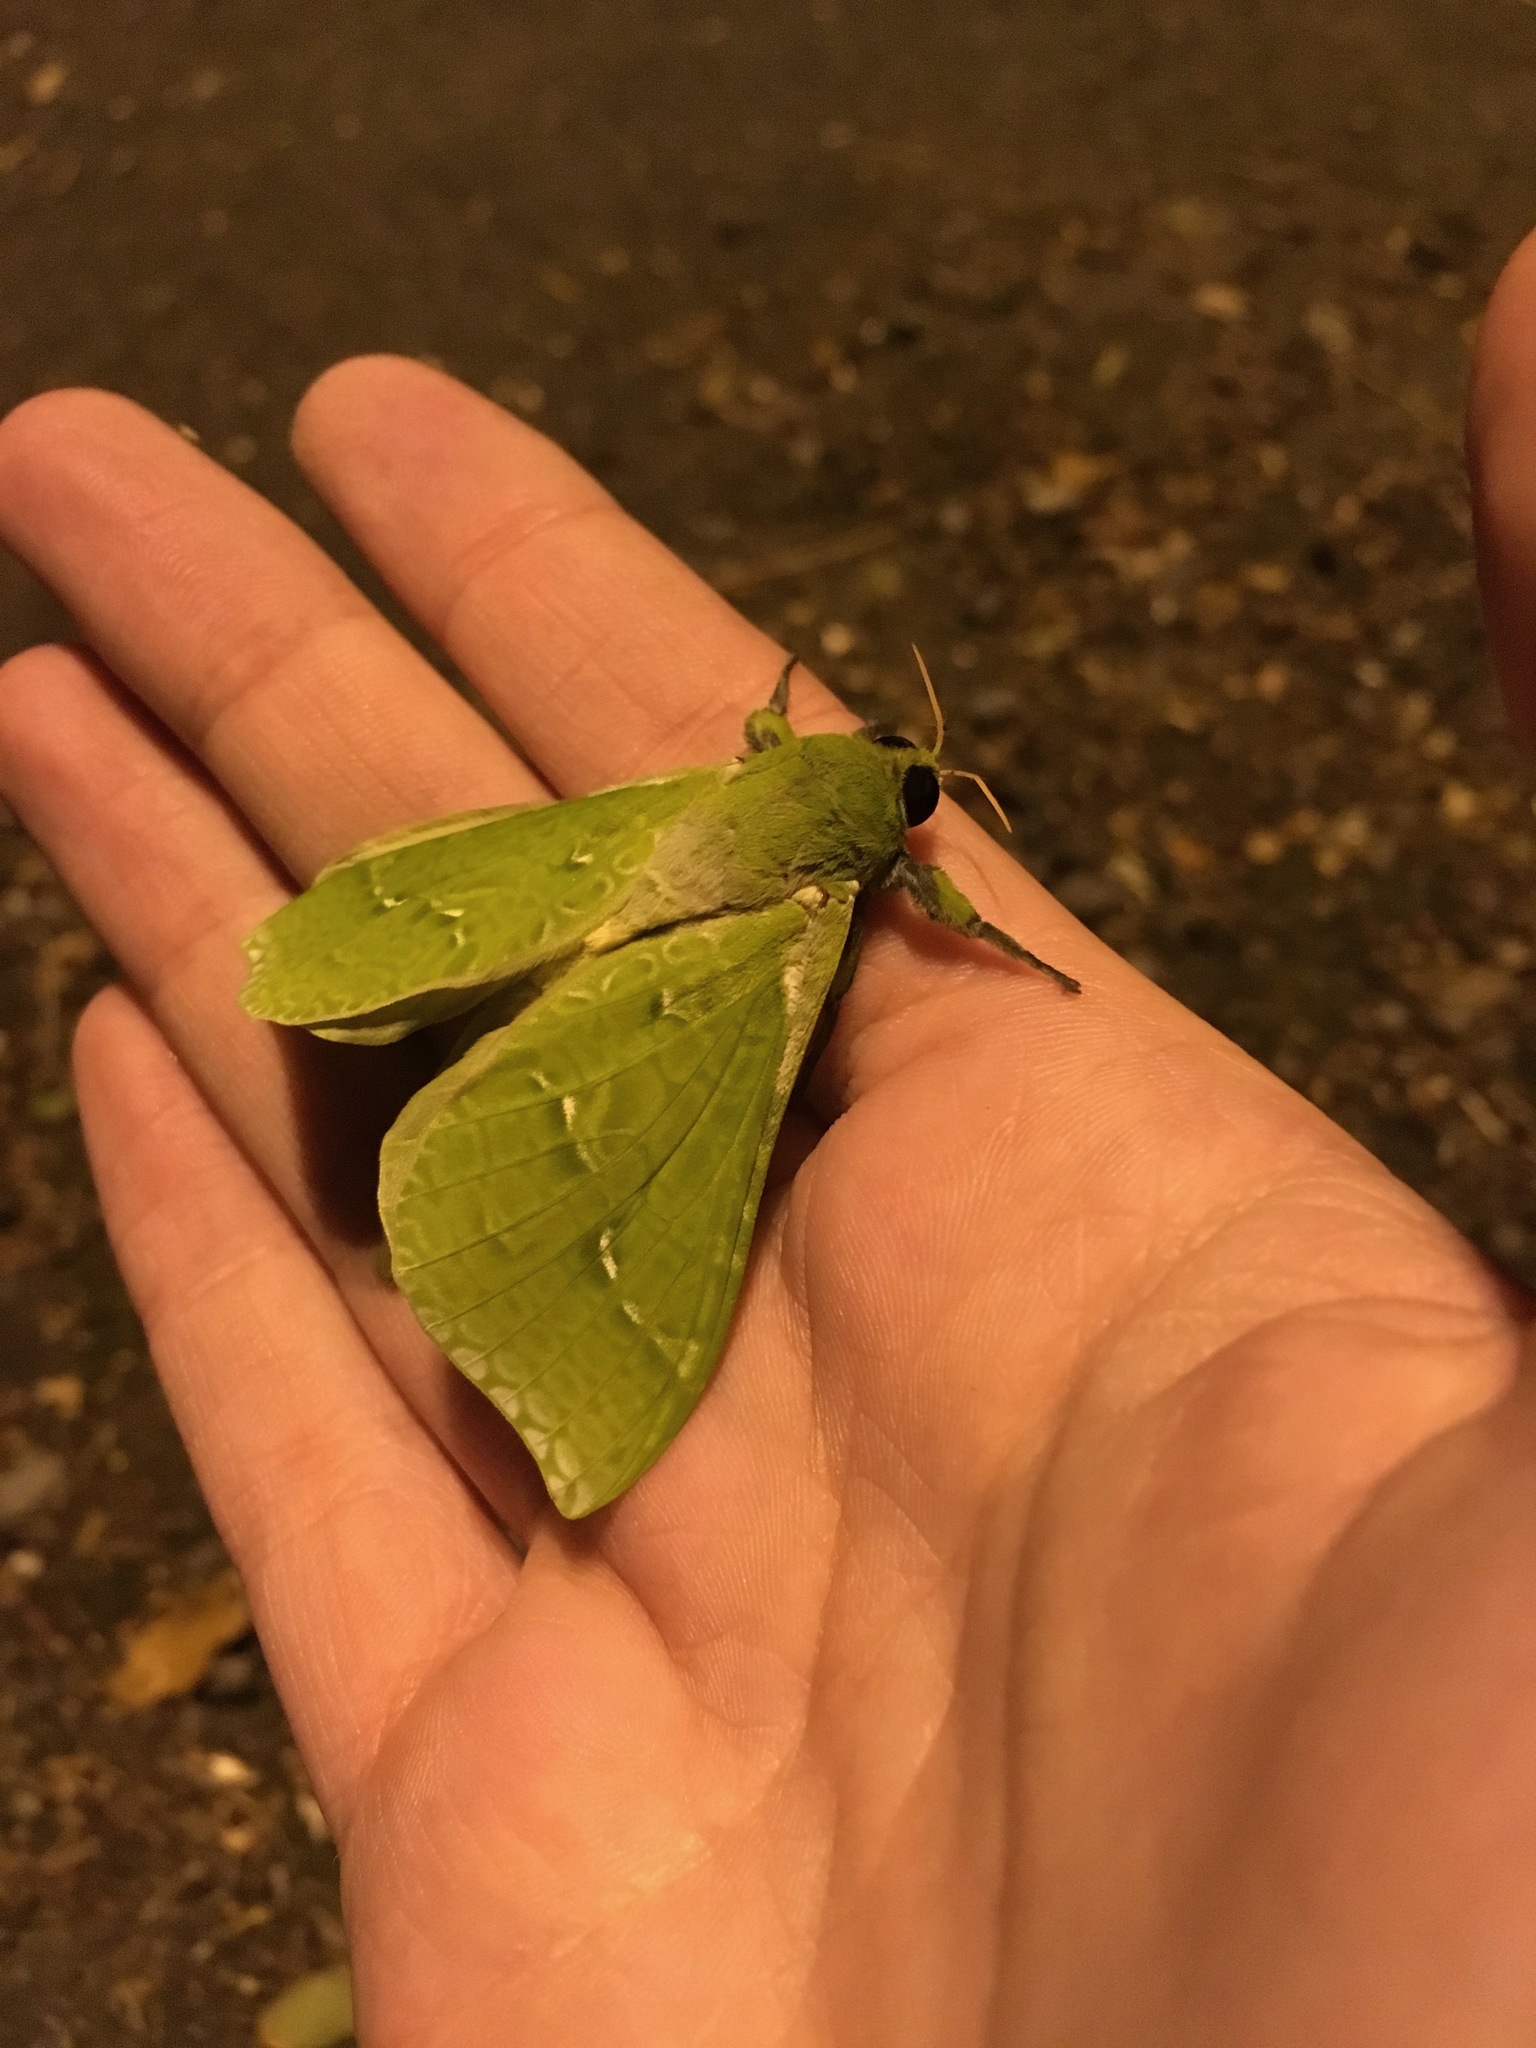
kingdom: Animalia
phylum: Arthropoda
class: Insecta
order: Lepidoptera
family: Hepialidae
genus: Aenetus
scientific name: Aenetus virescens
